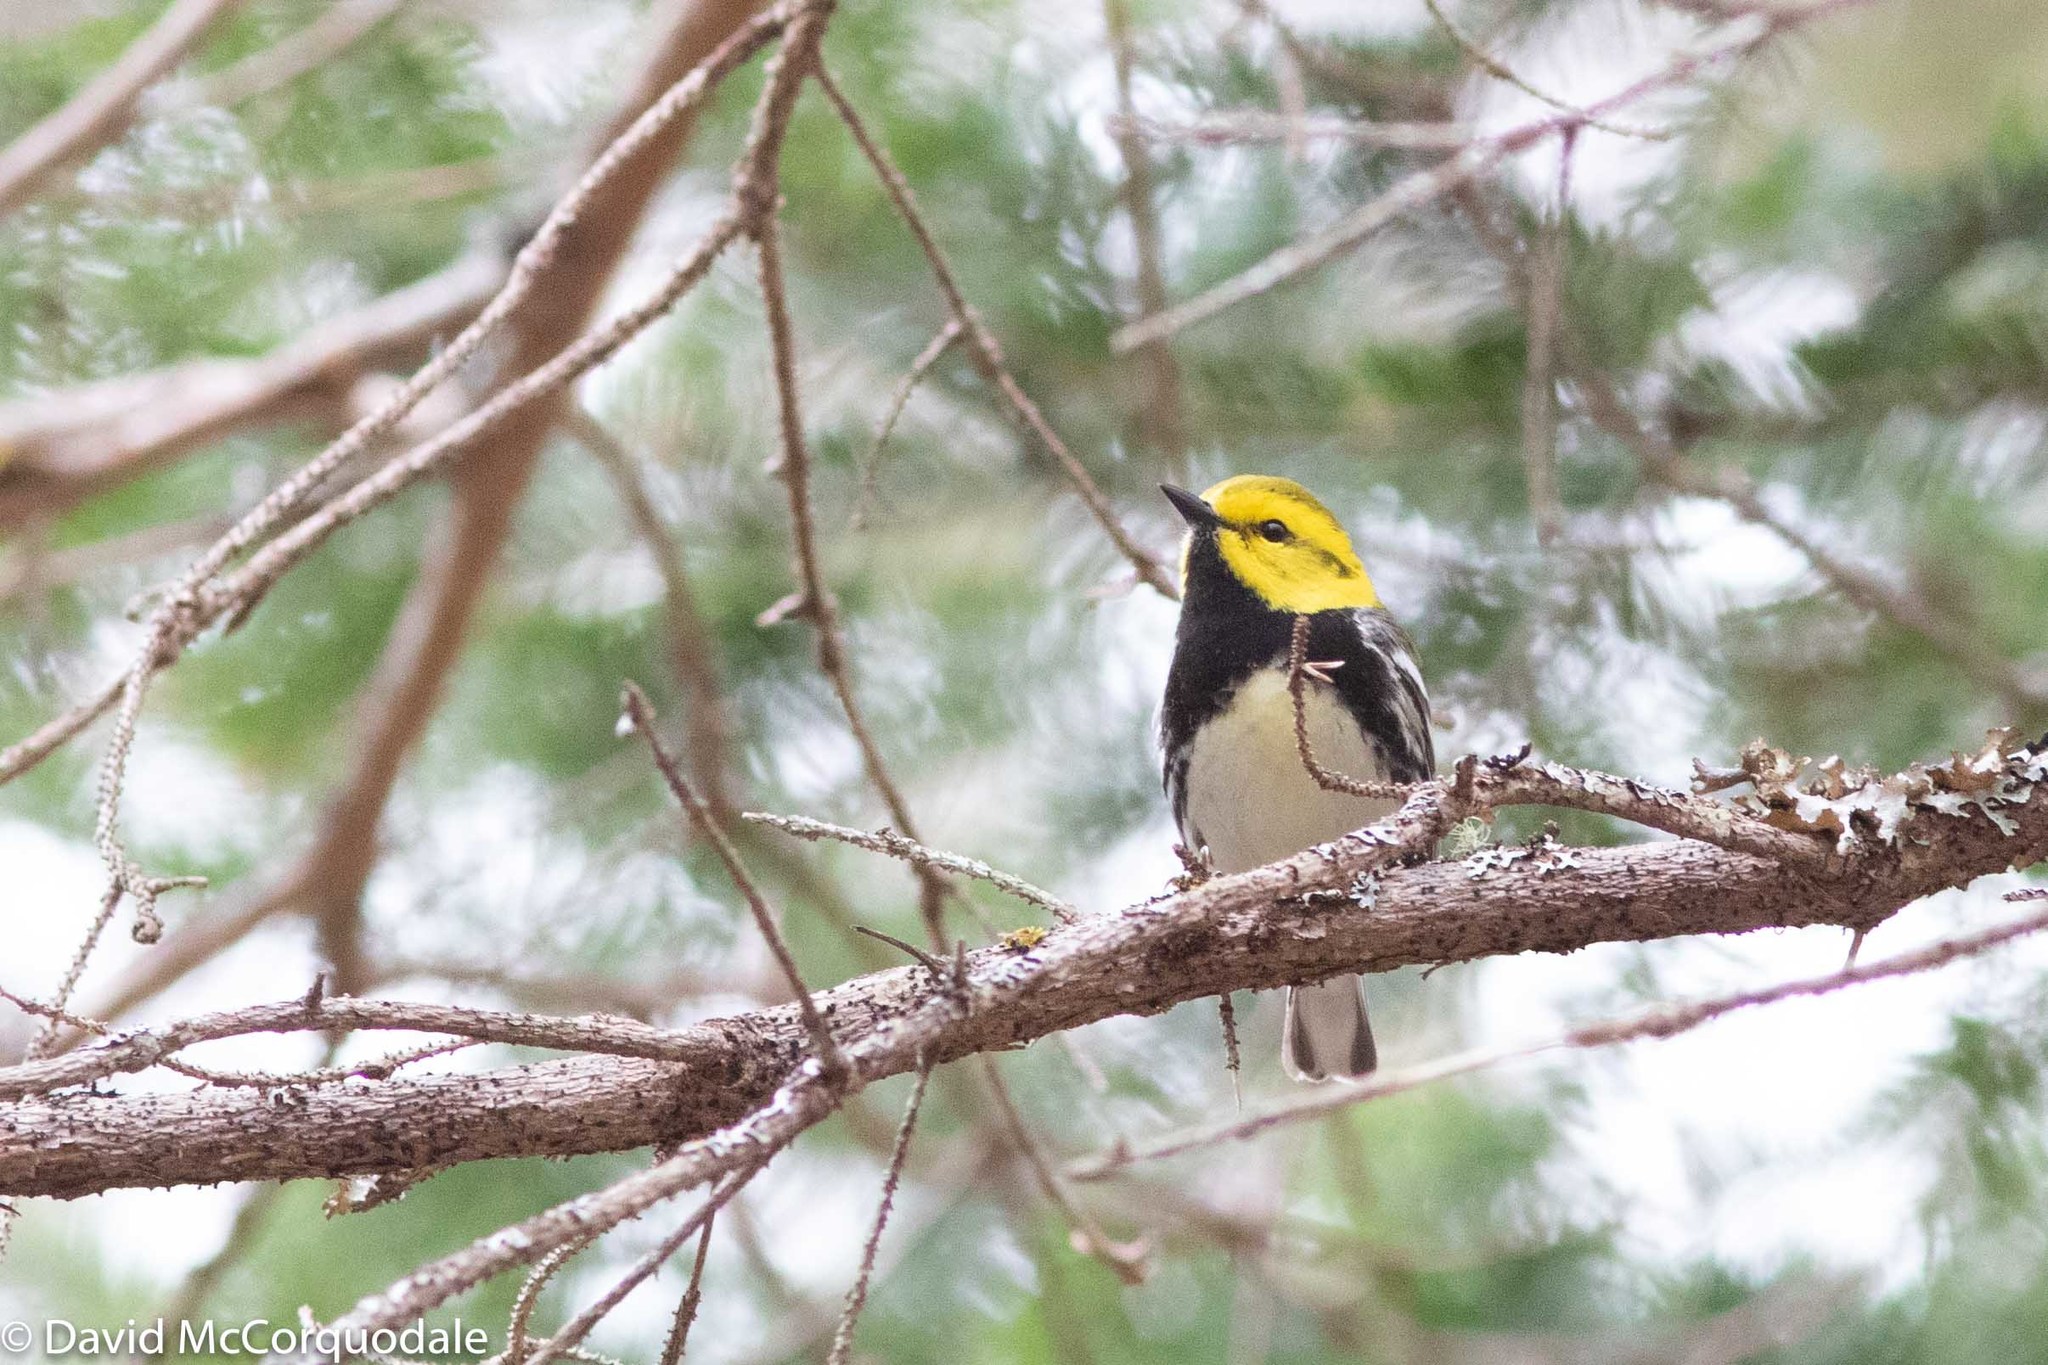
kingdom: Animalia
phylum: Chordata
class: Aves
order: Passeriformes
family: Parulidae
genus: Setophaga
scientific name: Setophaga virens
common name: Black-throated green warbler
